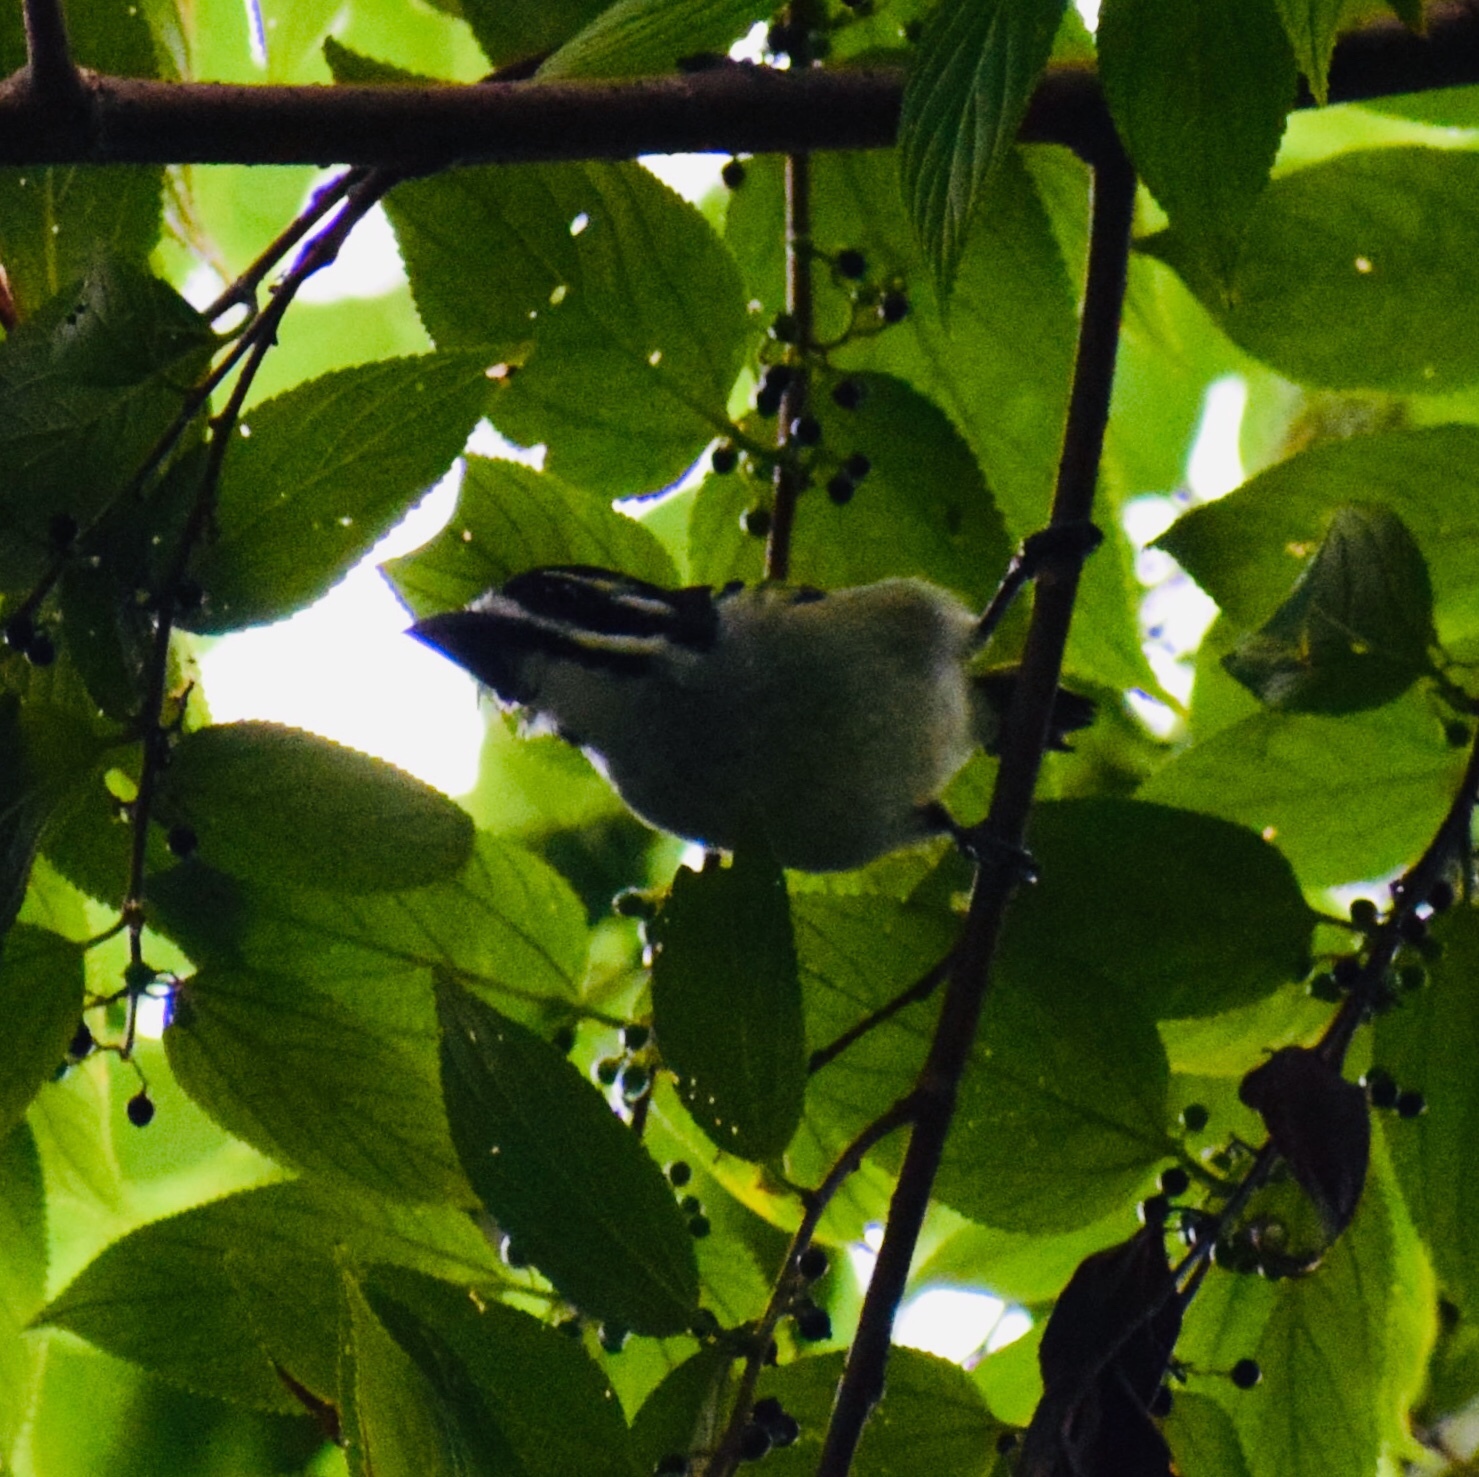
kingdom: Animalia
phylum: Chordata
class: Aves
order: Piciformes
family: Lybiidae
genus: Pogoniulus
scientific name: Pogoniulus bilineatus
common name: Yellow-rumped tinkerbird
